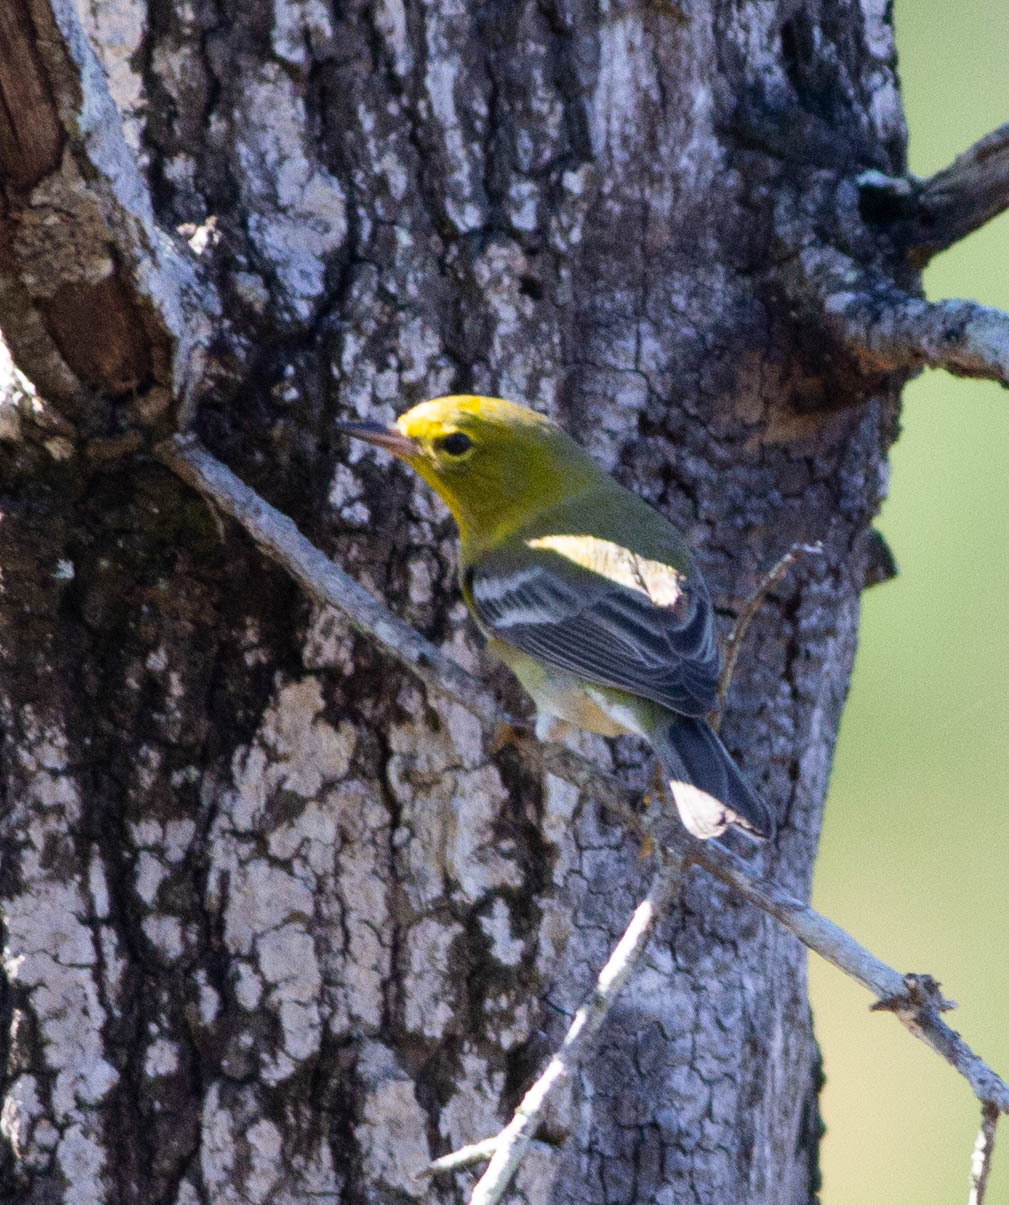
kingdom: Animalia
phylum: Chordata
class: Aves
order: Passeriformes
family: Parulidae
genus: Setophaga
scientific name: Setophaga pinus
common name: Pine warbler
